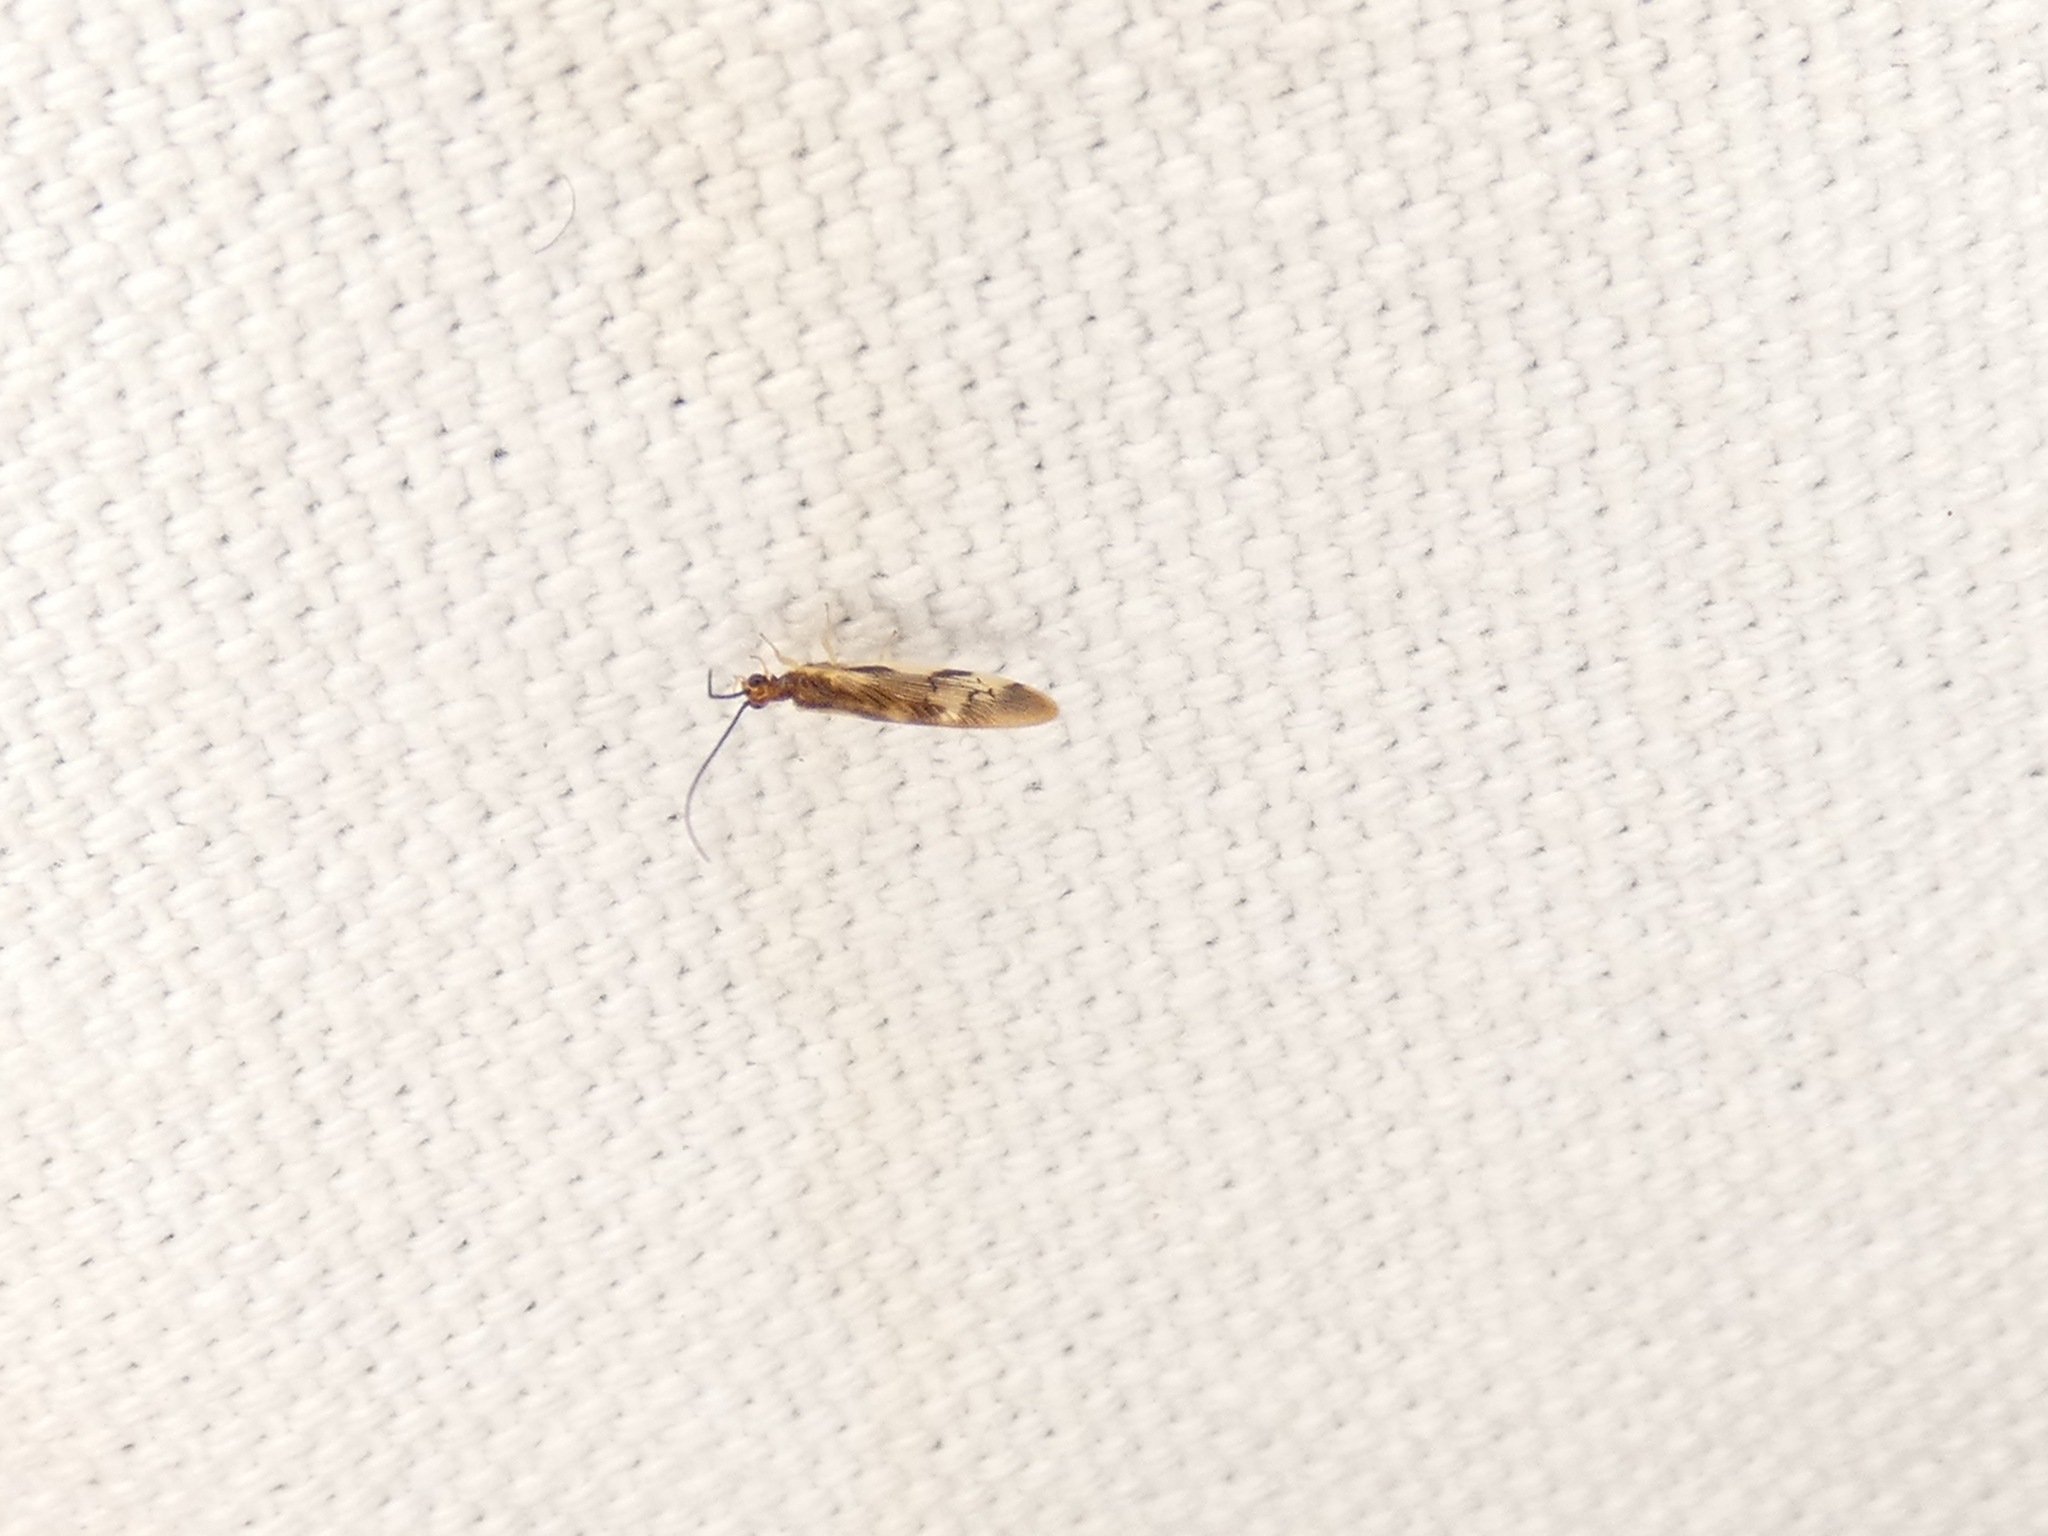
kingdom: Animalia
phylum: Arthropoda
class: Insecta
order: Neuroptera
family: Sisyridae
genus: Climacia
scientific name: Climacia areolaris
